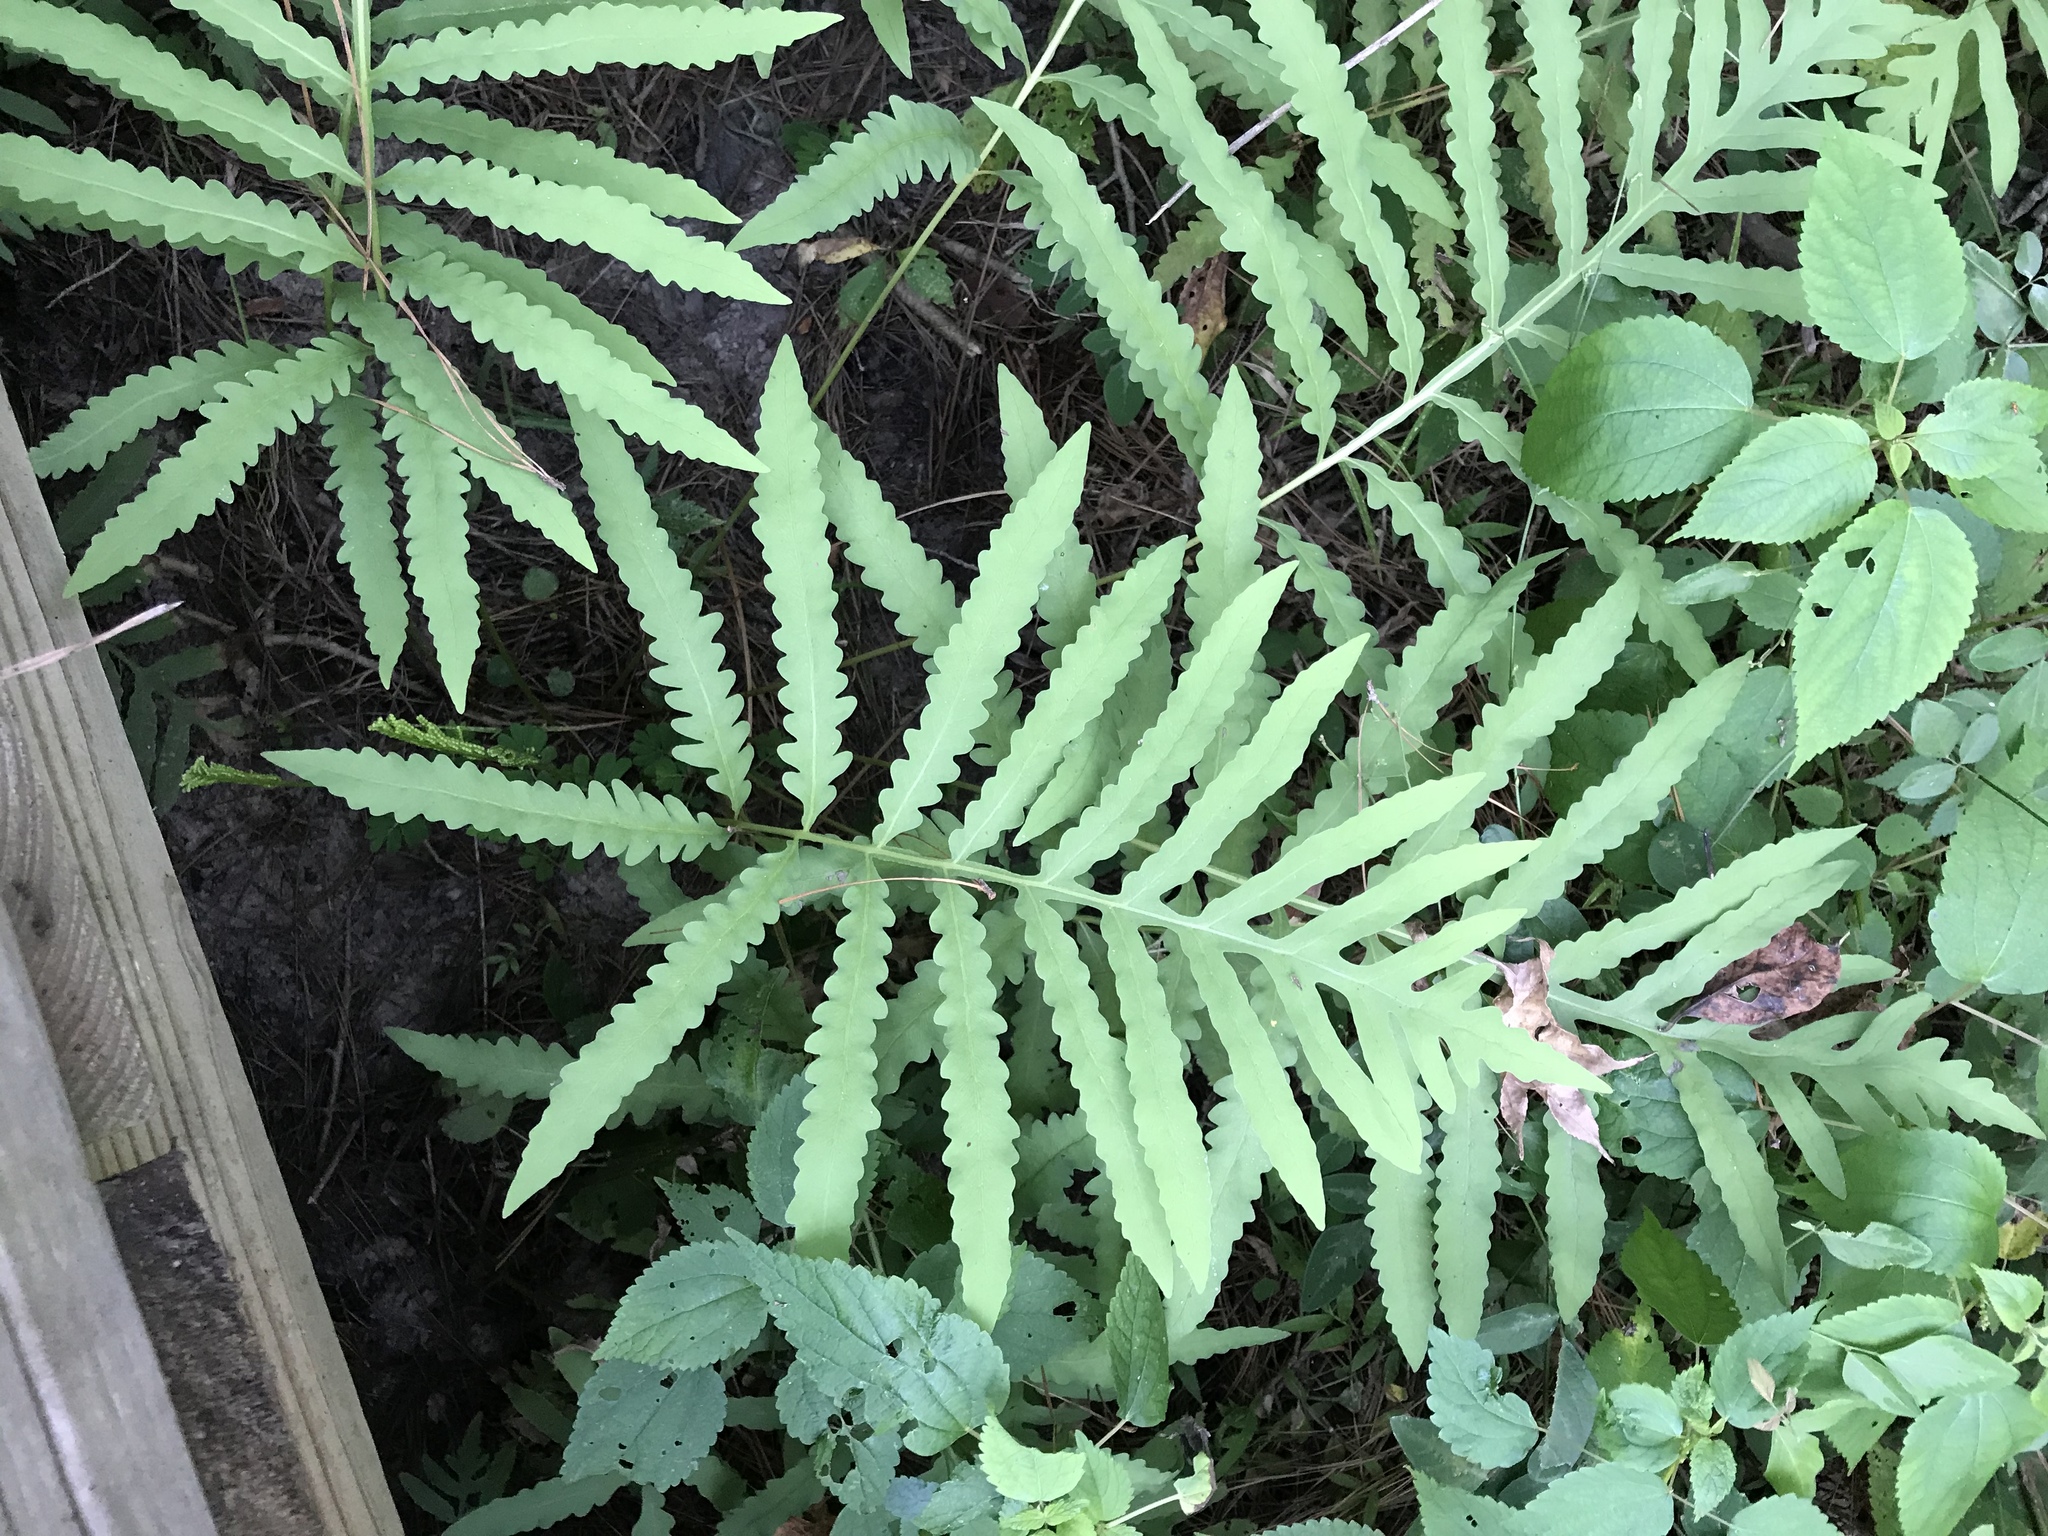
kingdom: Plantae
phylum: Tracheophyta
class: Polypodiopsida
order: Polypodiales
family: Onocleaceae
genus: Onoclea
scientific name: Onoclea sensibilis
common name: Sensitive fern
